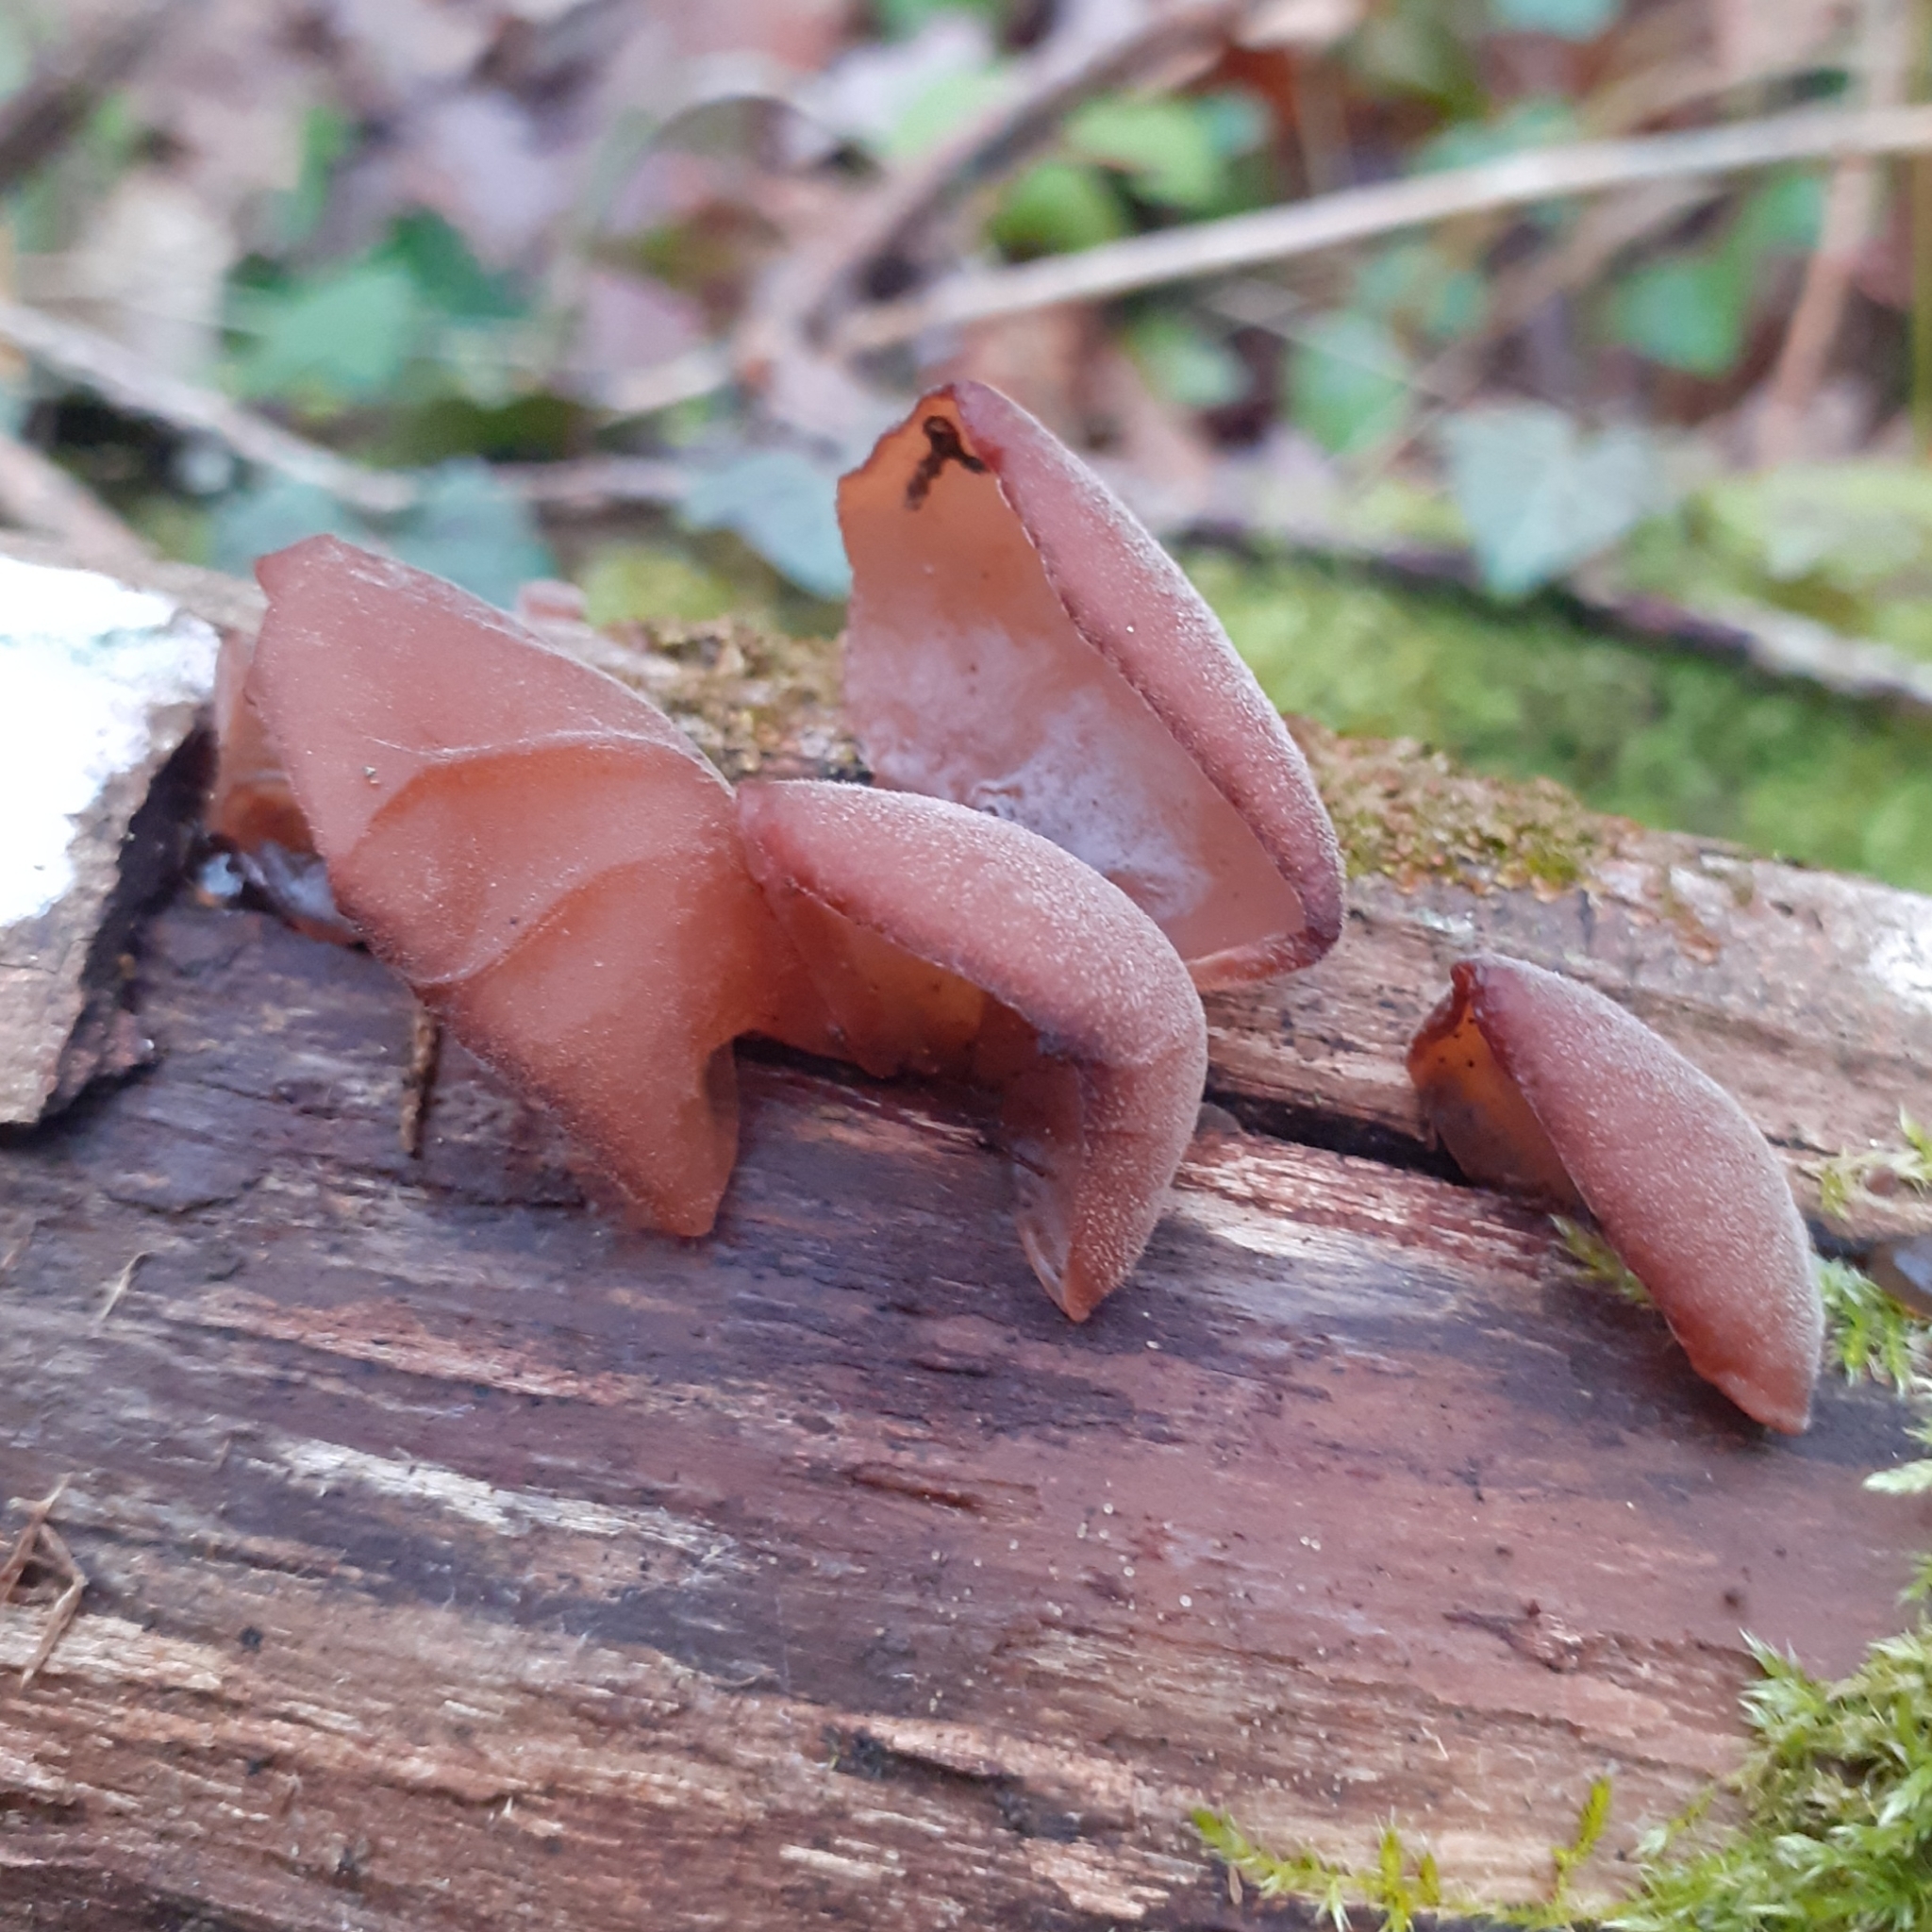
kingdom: Fungi
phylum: Basidiomycota
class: Agaricomycetes
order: Auriculariales
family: Auriculariaceae
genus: Auricularia
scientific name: Auricularia auricula-judae
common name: Jelly ear
